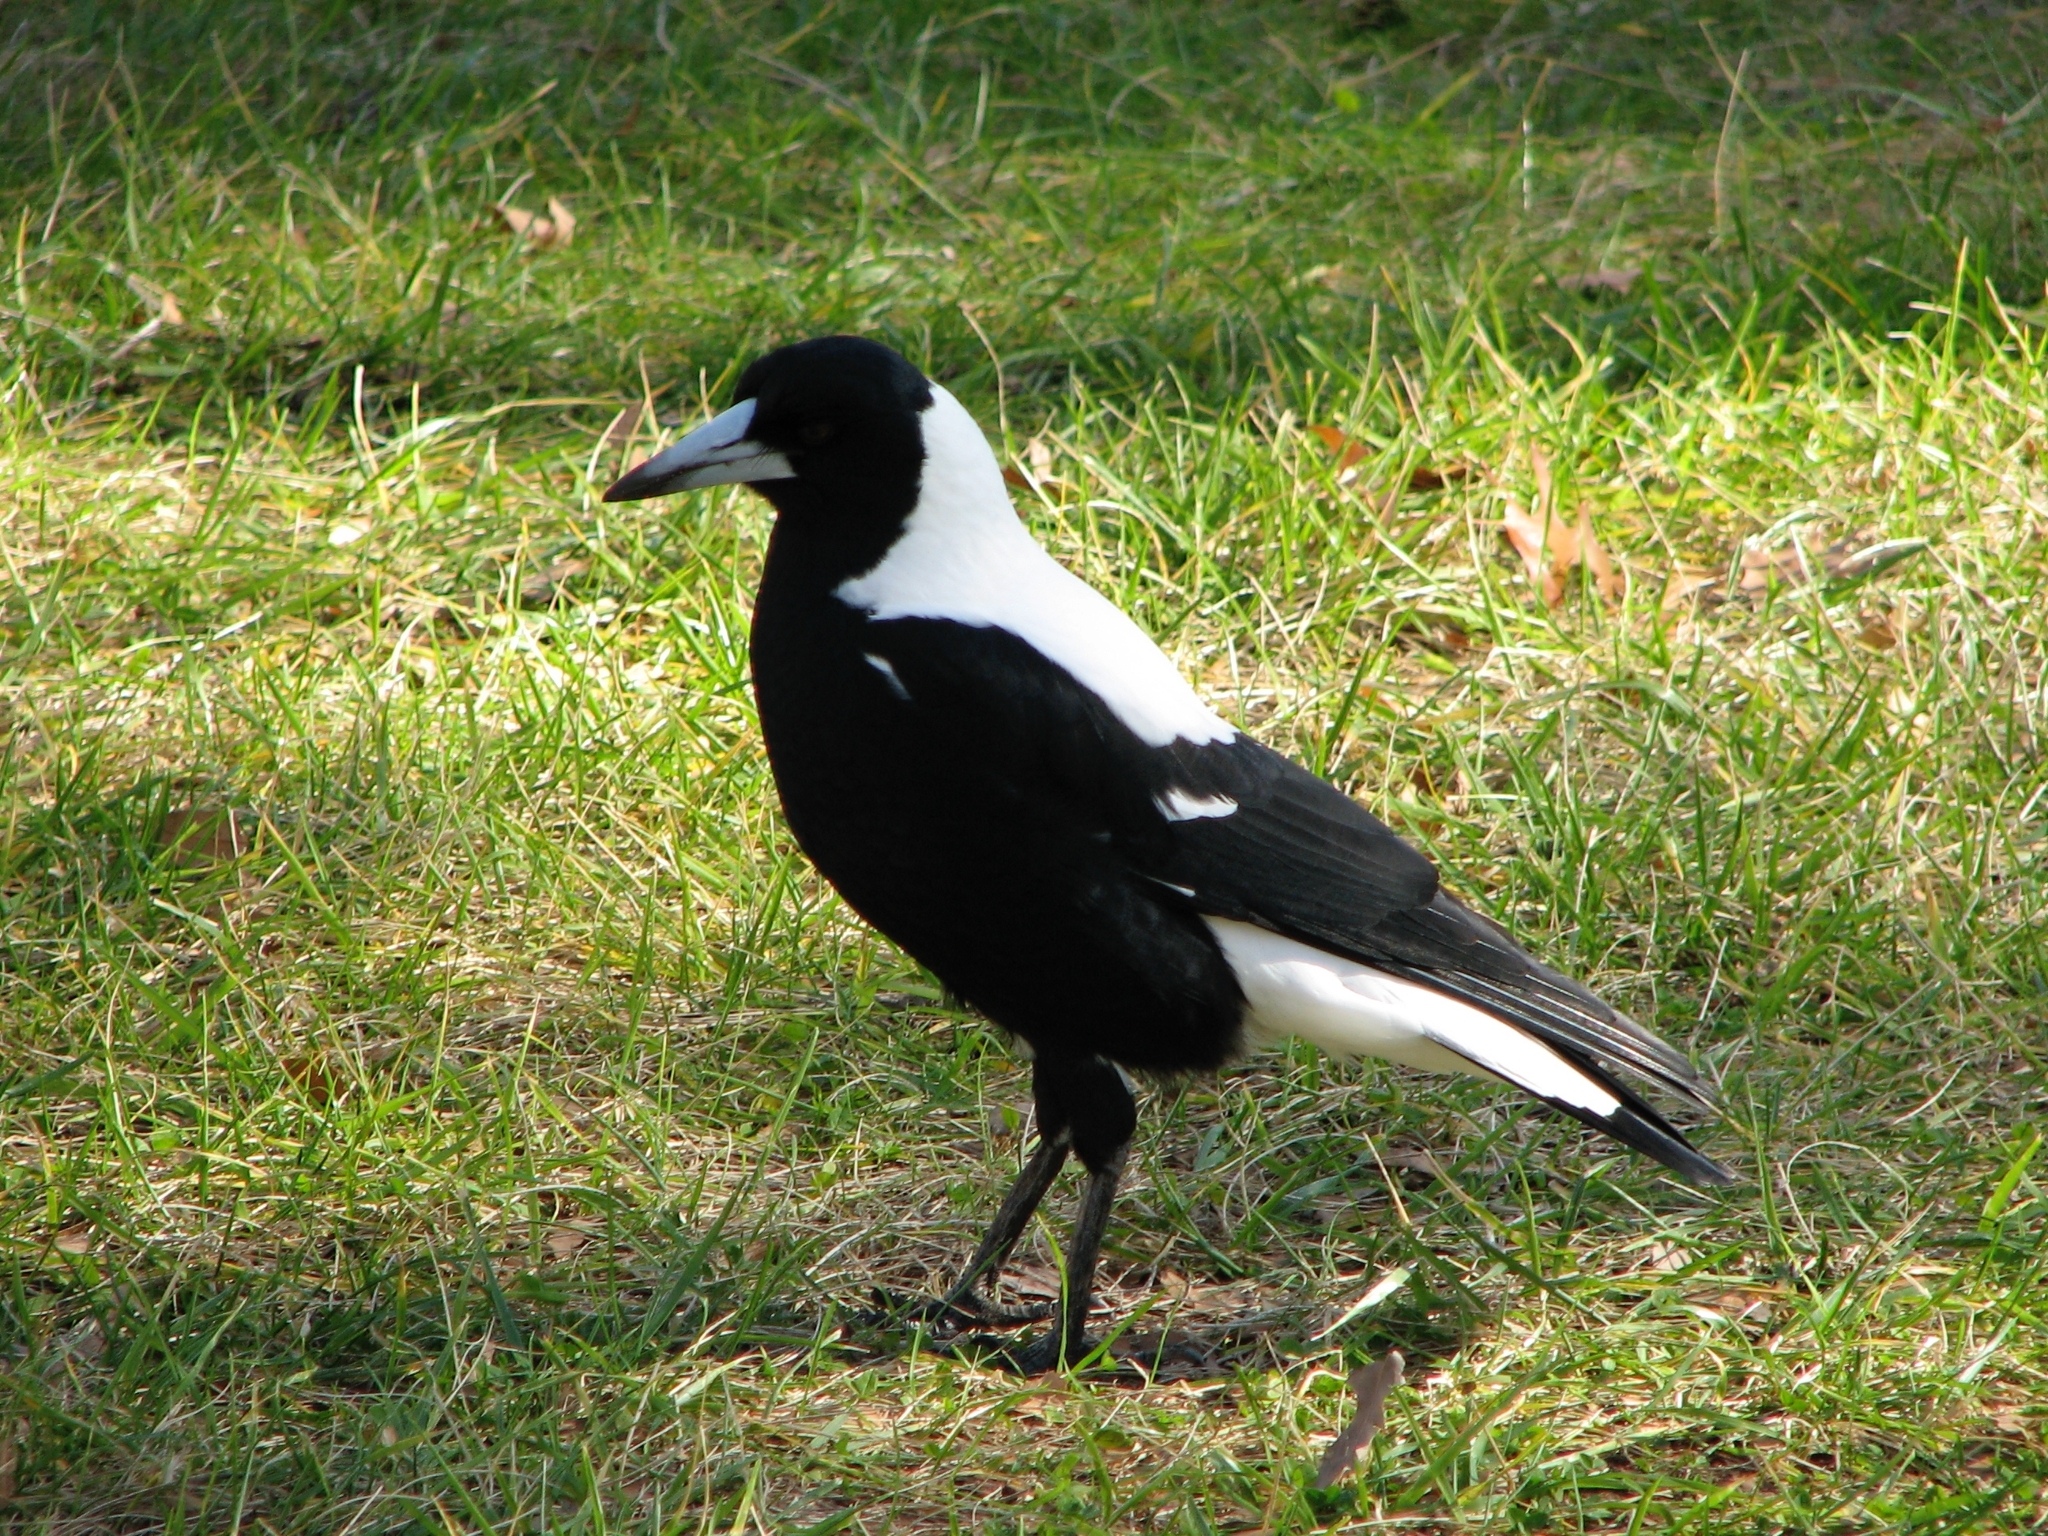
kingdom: Animalia
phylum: Chordata
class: Aves
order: Passeriformes
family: Cracticidae
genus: Gymnorhina
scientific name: Gymnorhina tibicen
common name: Australian magpie
